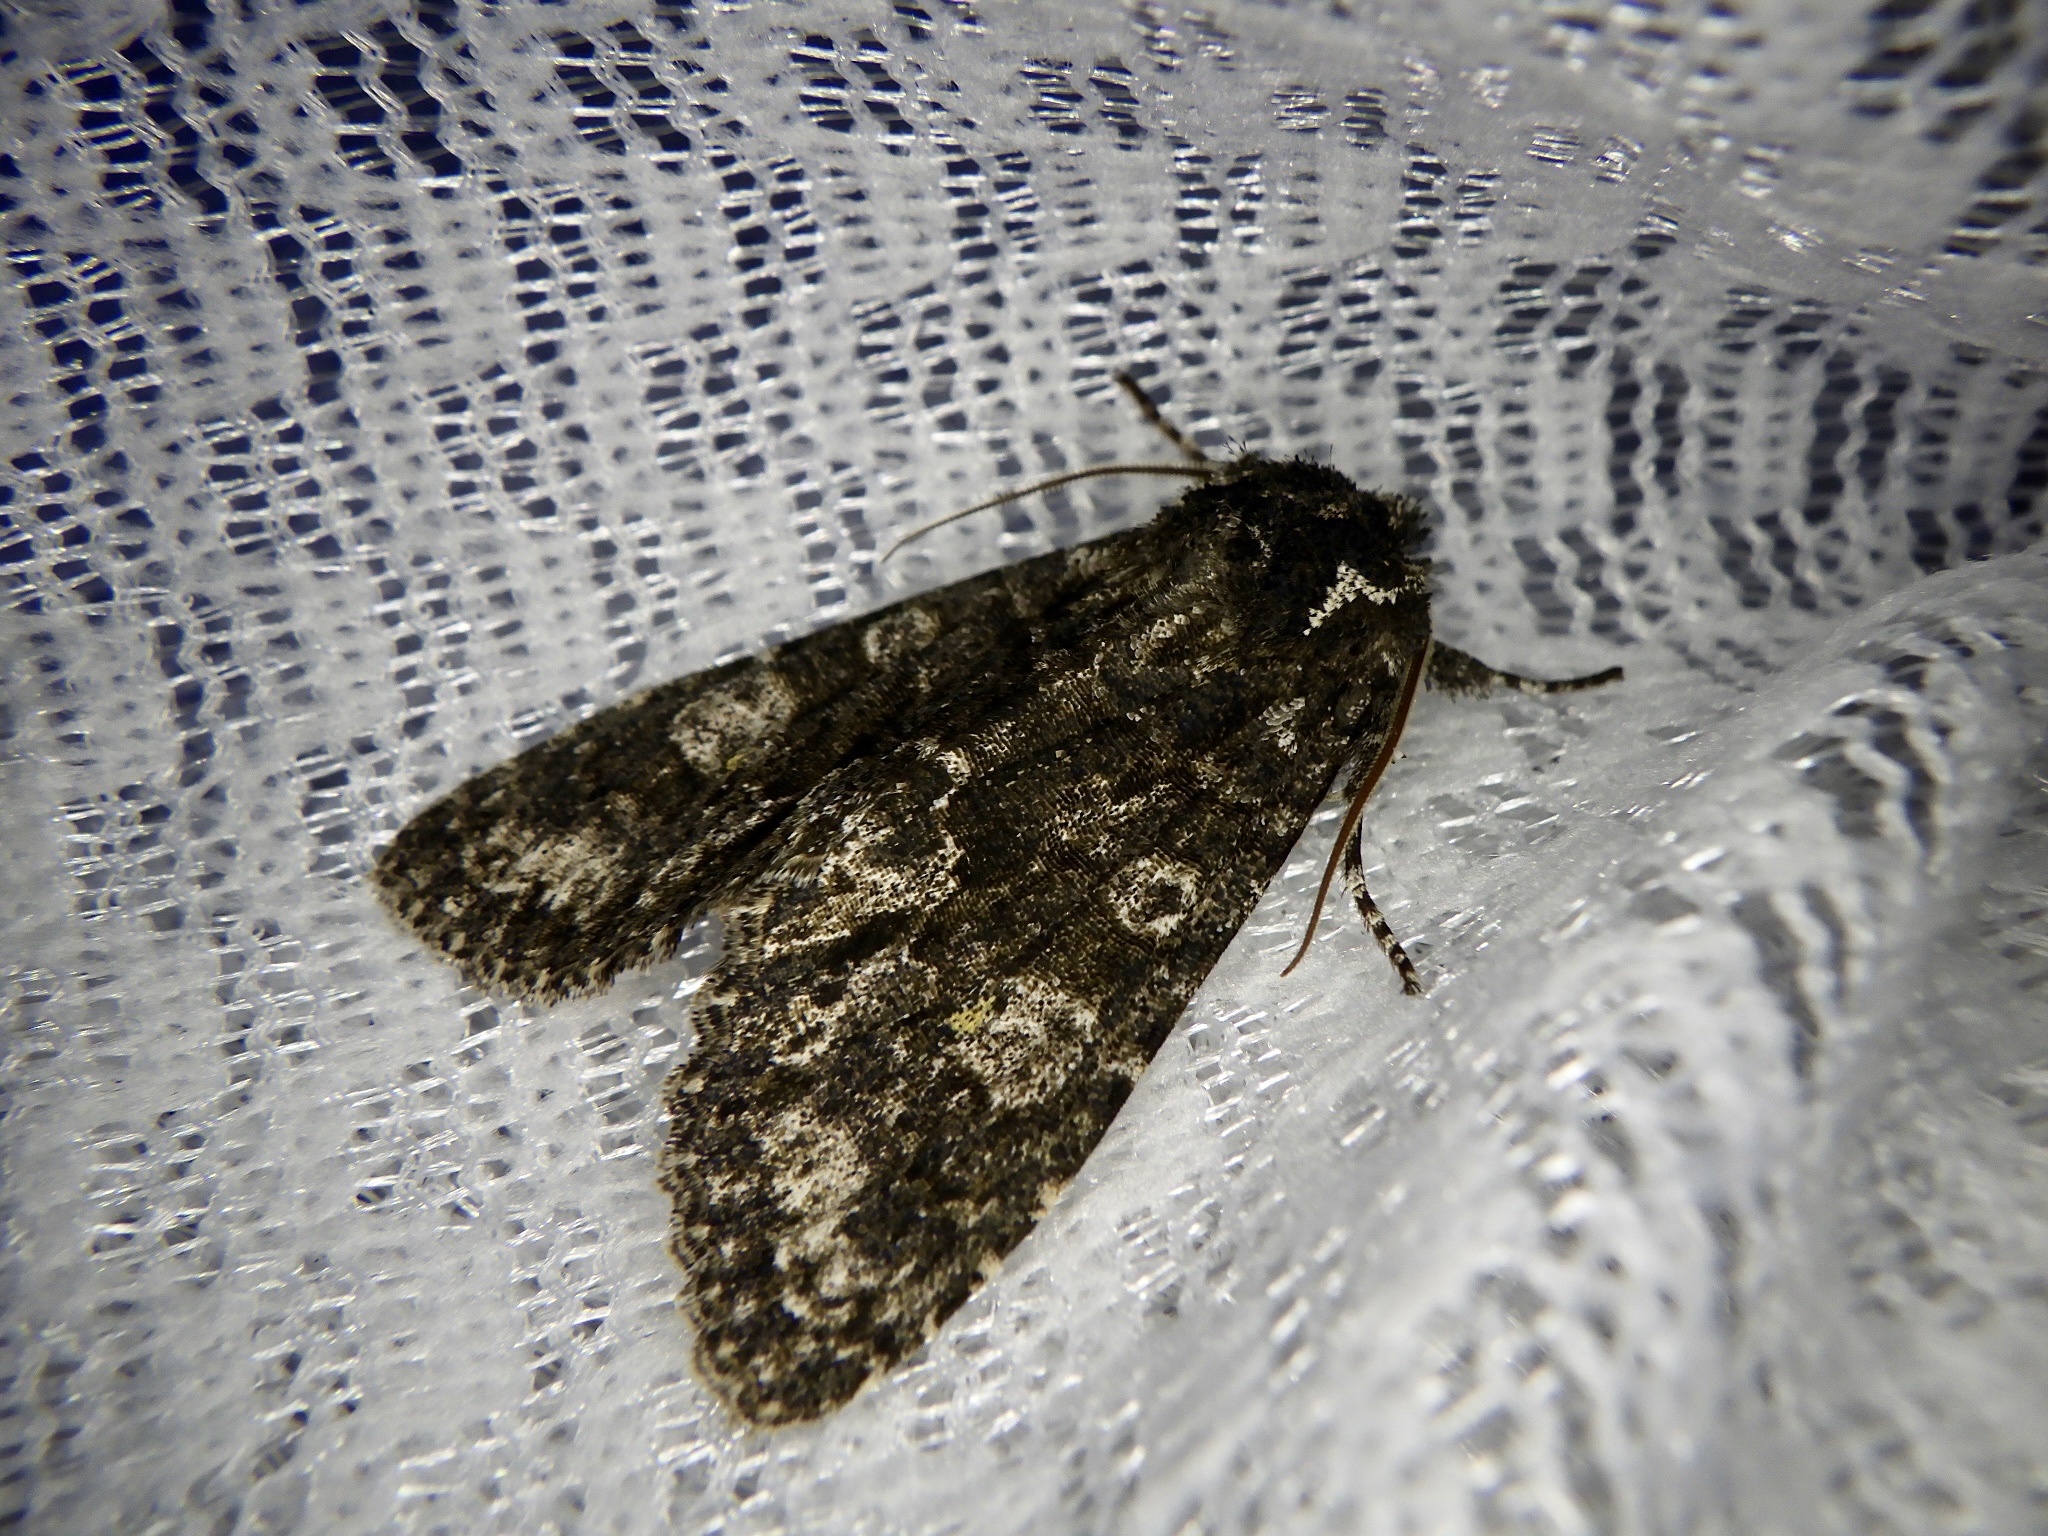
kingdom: Animalia
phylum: Arthropoda
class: Insecta
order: Lepidoptera
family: Noctuidae
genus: Belosticta
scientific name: Belosticta funesta
